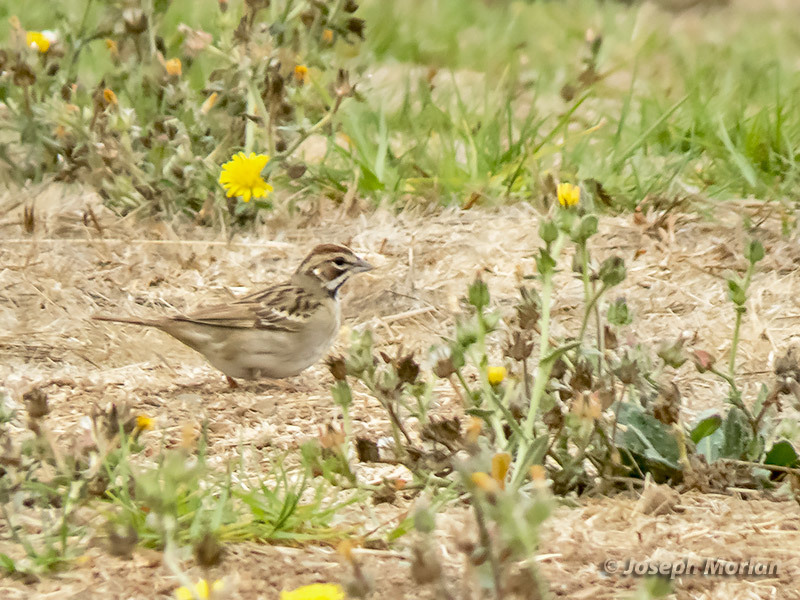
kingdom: Animalia
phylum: Chordata
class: Aves
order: Passeriformes
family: Passerellidae
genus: Chondestes
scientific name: Chondestes grammacus
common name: Lark sparrow
